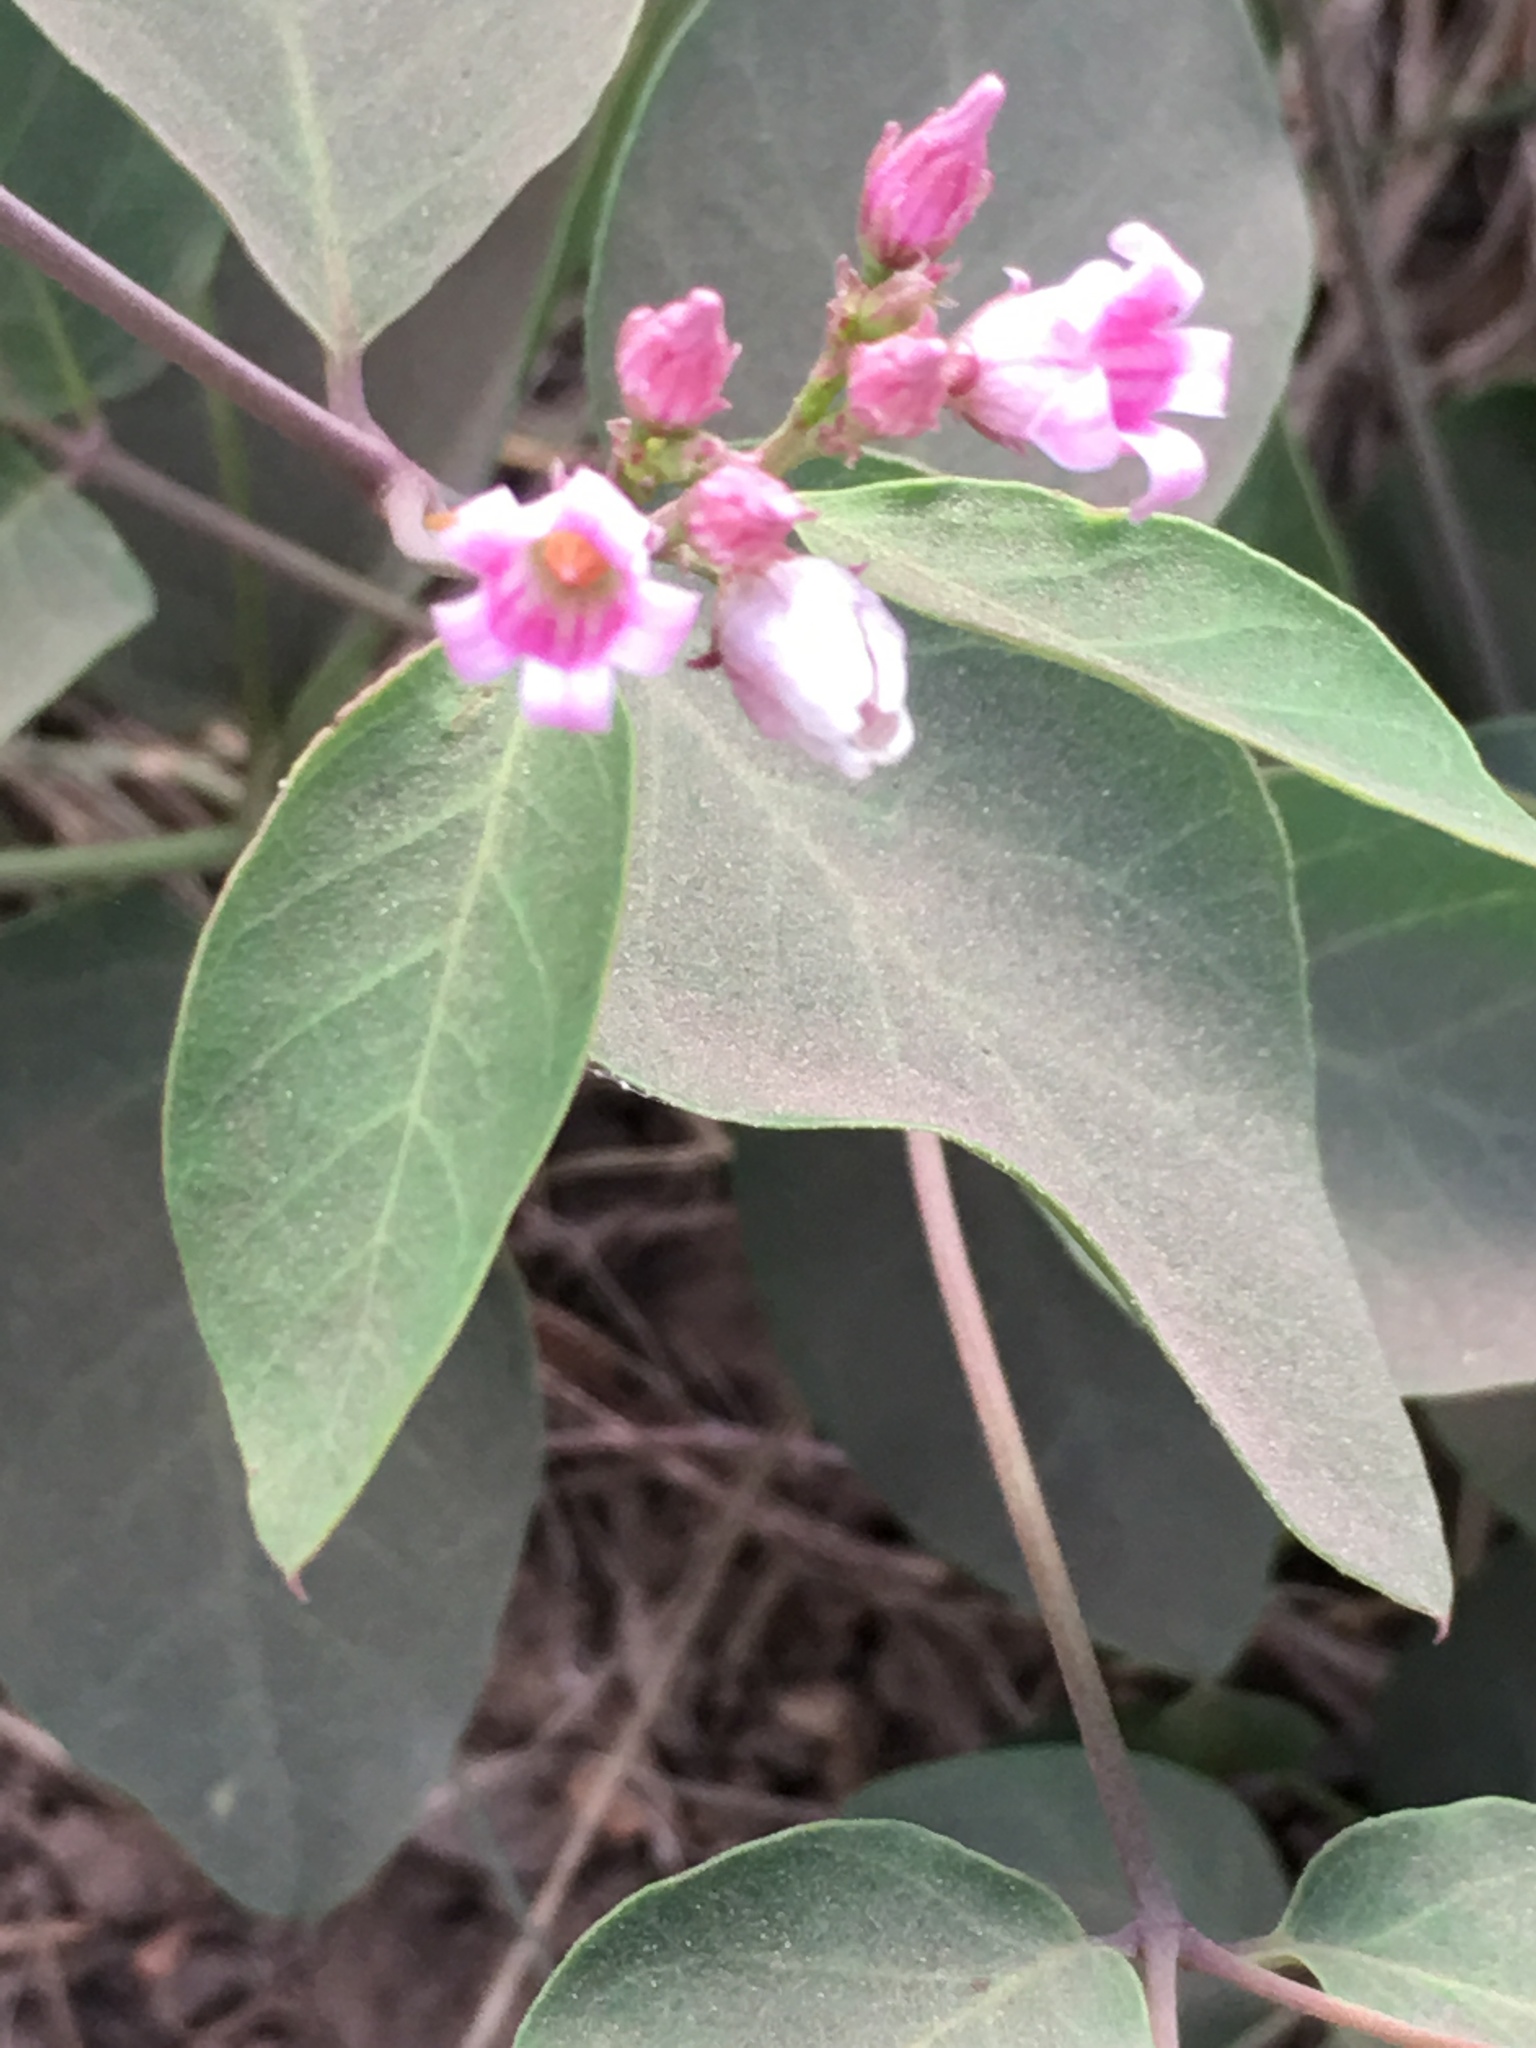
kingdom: Plantae
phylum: Tracheophyta
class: Magnoliopsida
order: Gentianales
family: Apocynaceae
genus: Apocynum
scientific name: Apocynum androsaemifolium
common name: Spreading dogbane
